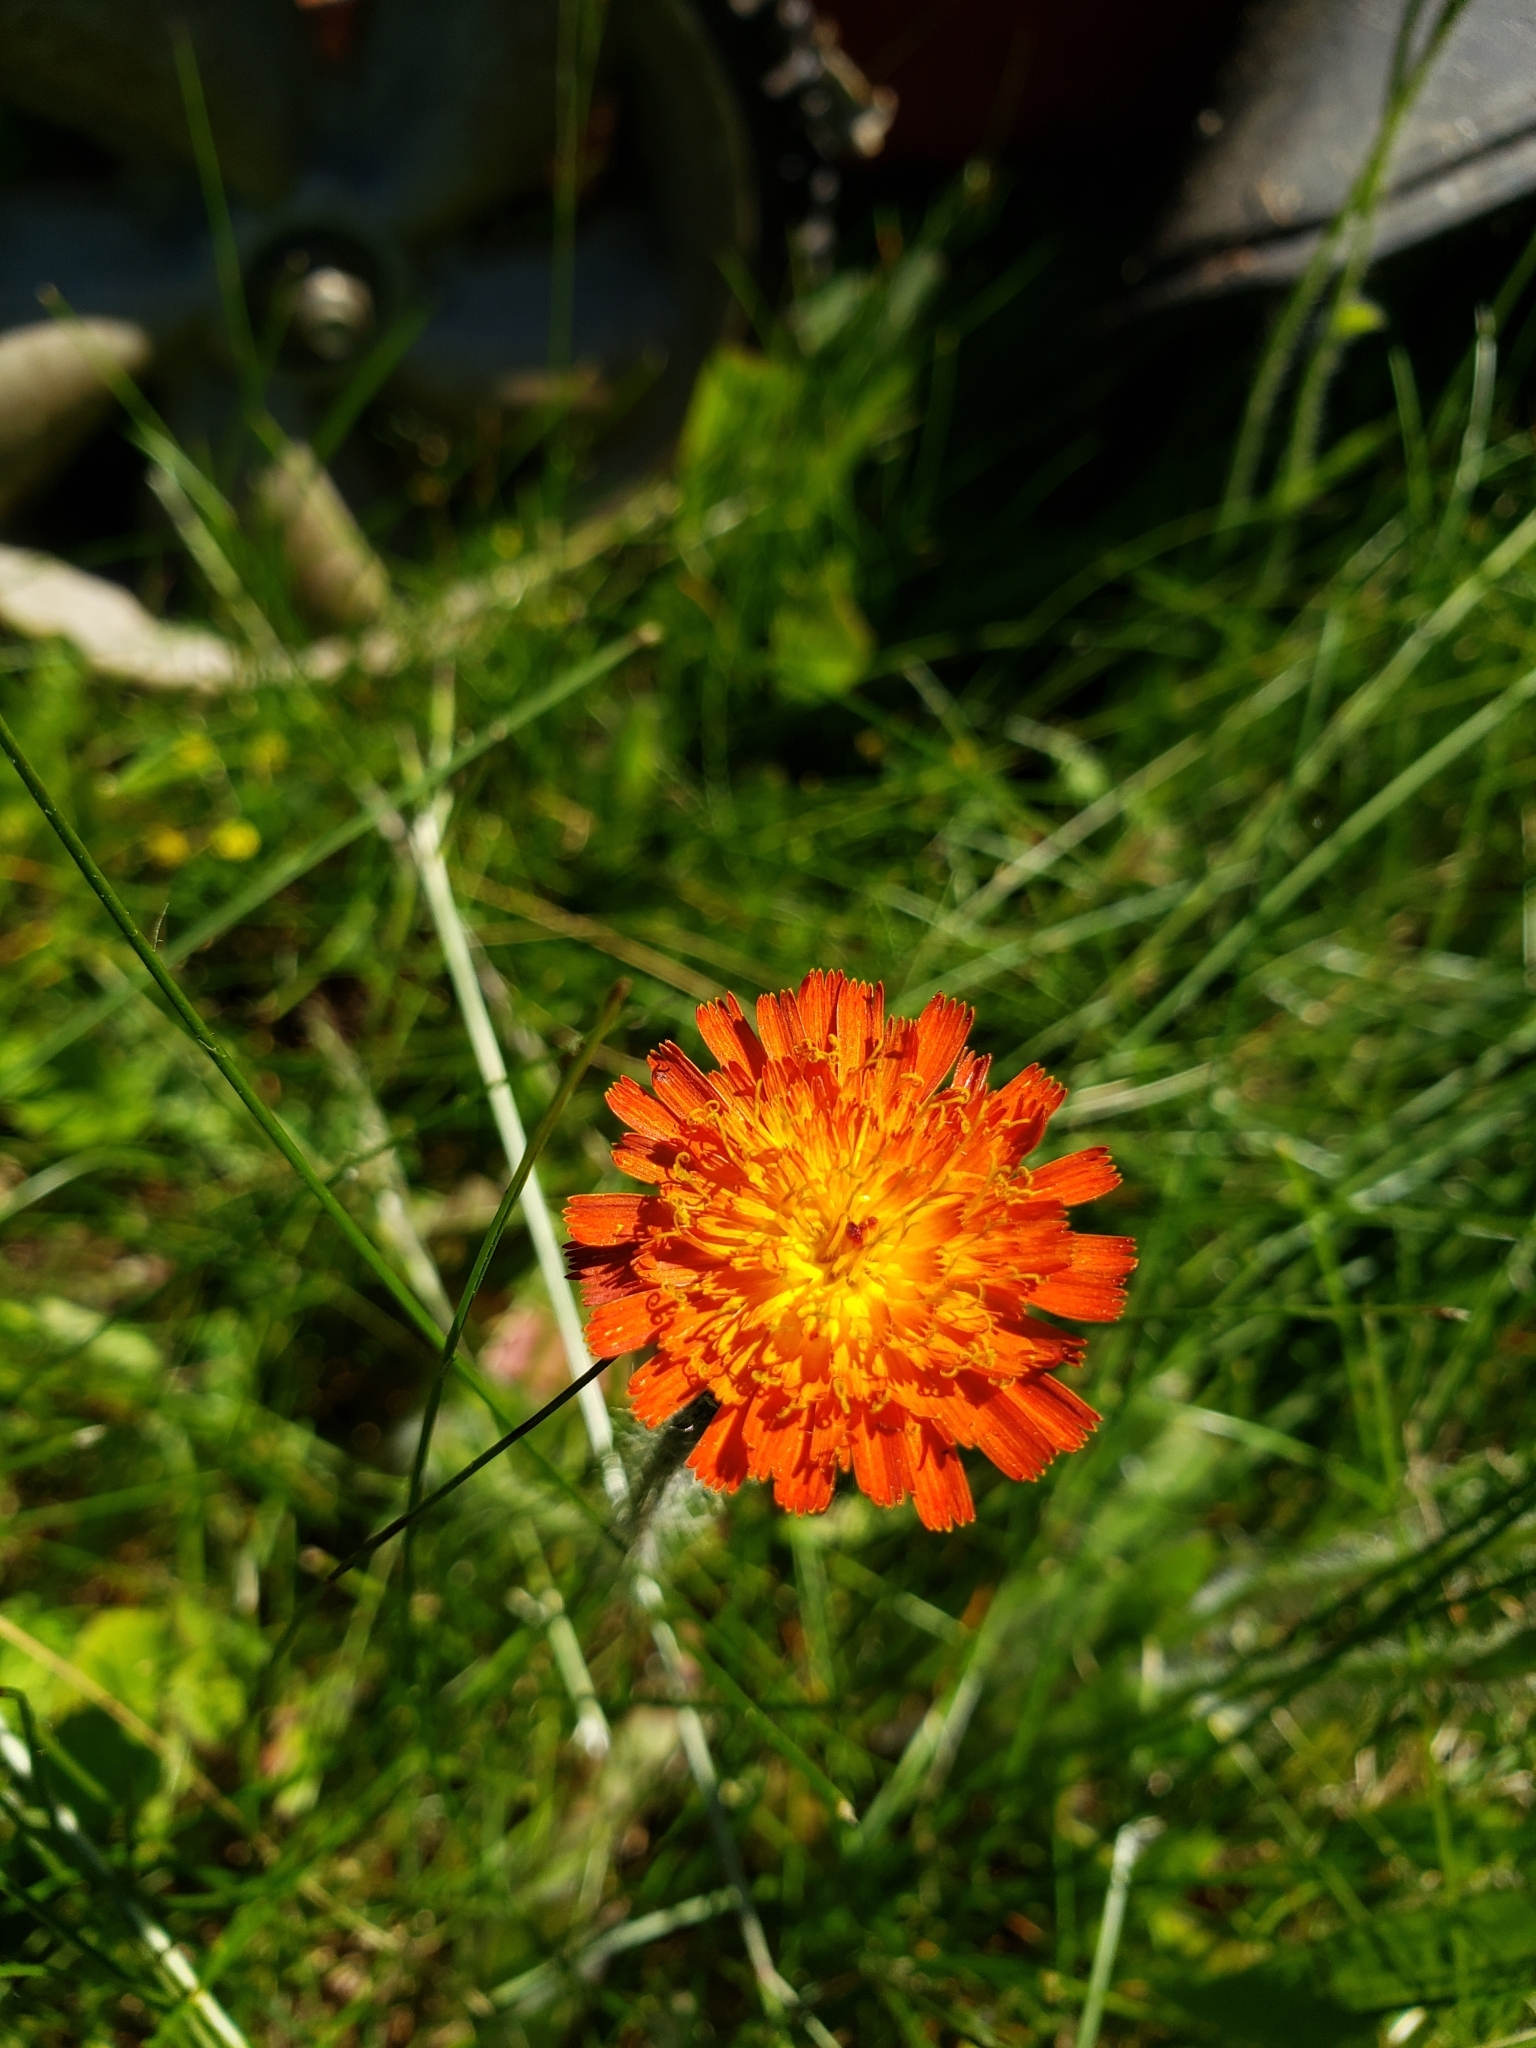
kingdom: Plantae
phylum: Tracheophyta
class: Magnoliopsida
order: Asterales
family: Asteraceae
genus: Pilosella
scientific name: Pilosella aurantiaca
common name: Fox-and-cubs
